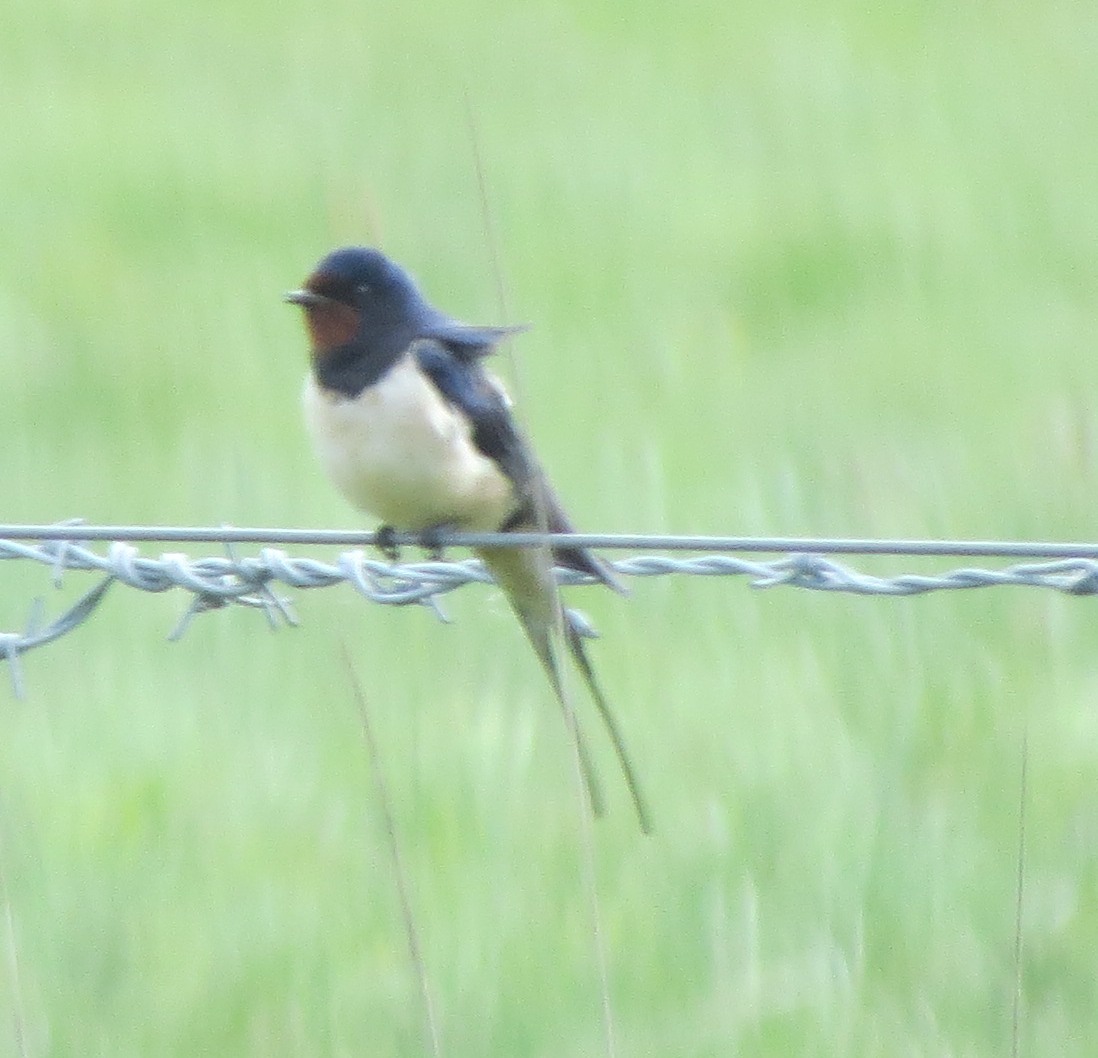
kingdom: Animalia
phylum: Chordata
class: Aves
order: Passeriformes
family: Hirundinidae
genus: Hirundo
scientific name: Hirundo rustica
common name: Barn swallow
